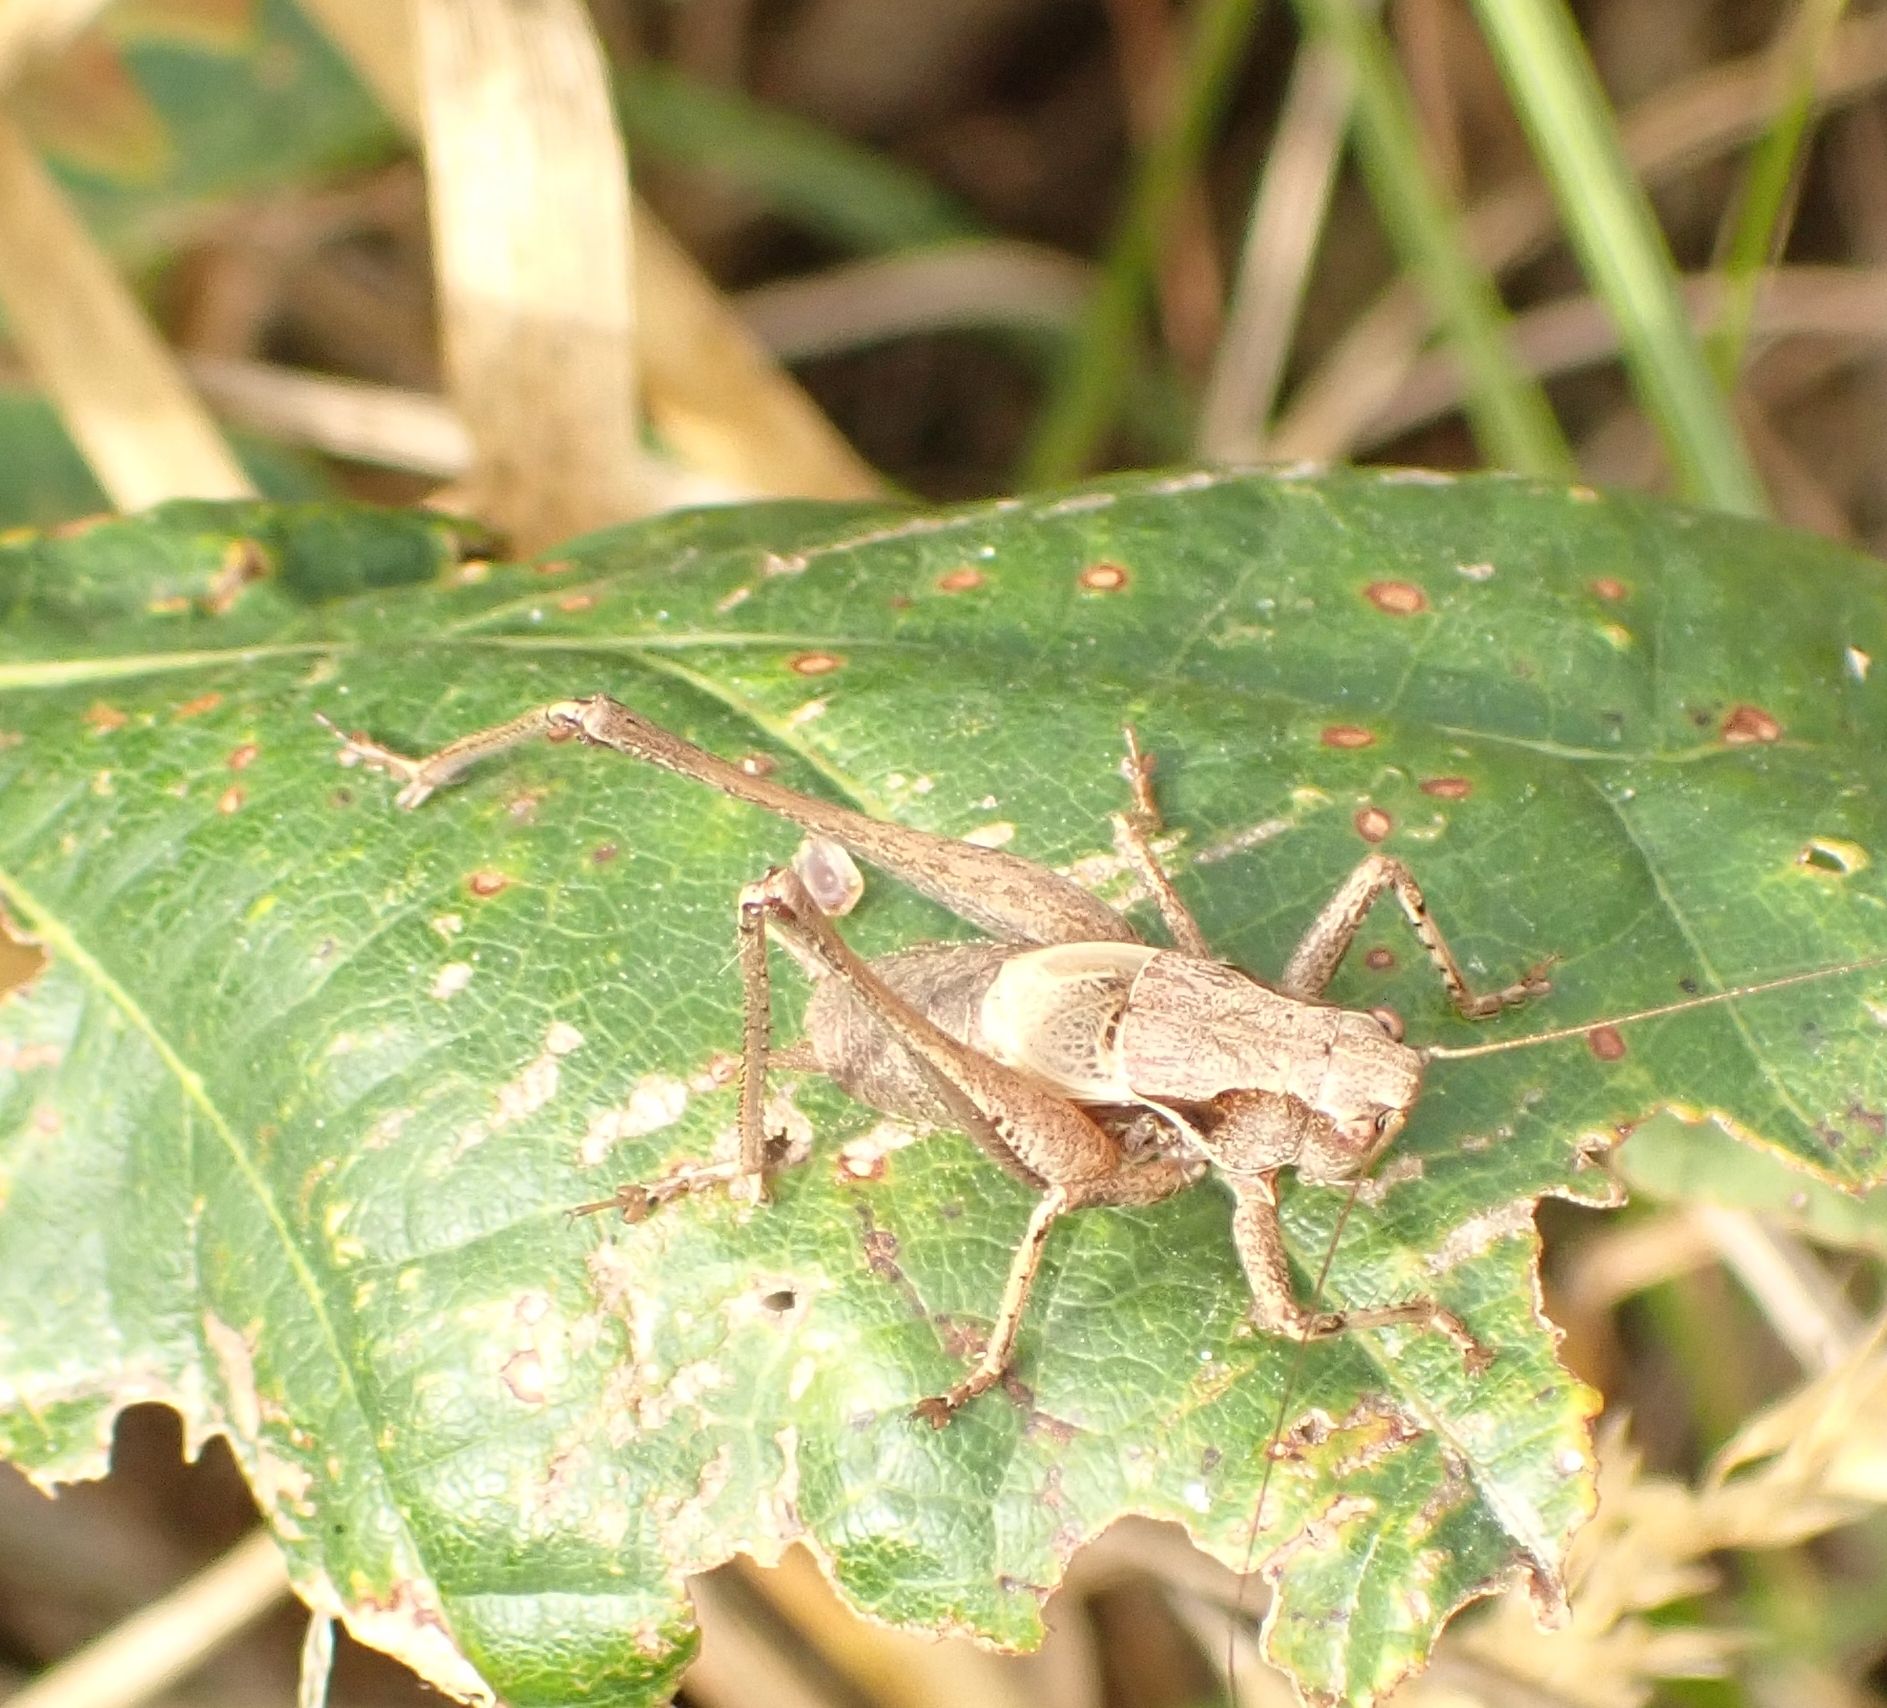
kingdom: Animalia
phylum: Arthropoda
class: Insecta
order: Orthoptera
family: Tettigoniidae
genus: Pholidoptera
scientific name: Pholidoptera griseoaptera
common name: Dark bush-cricket
